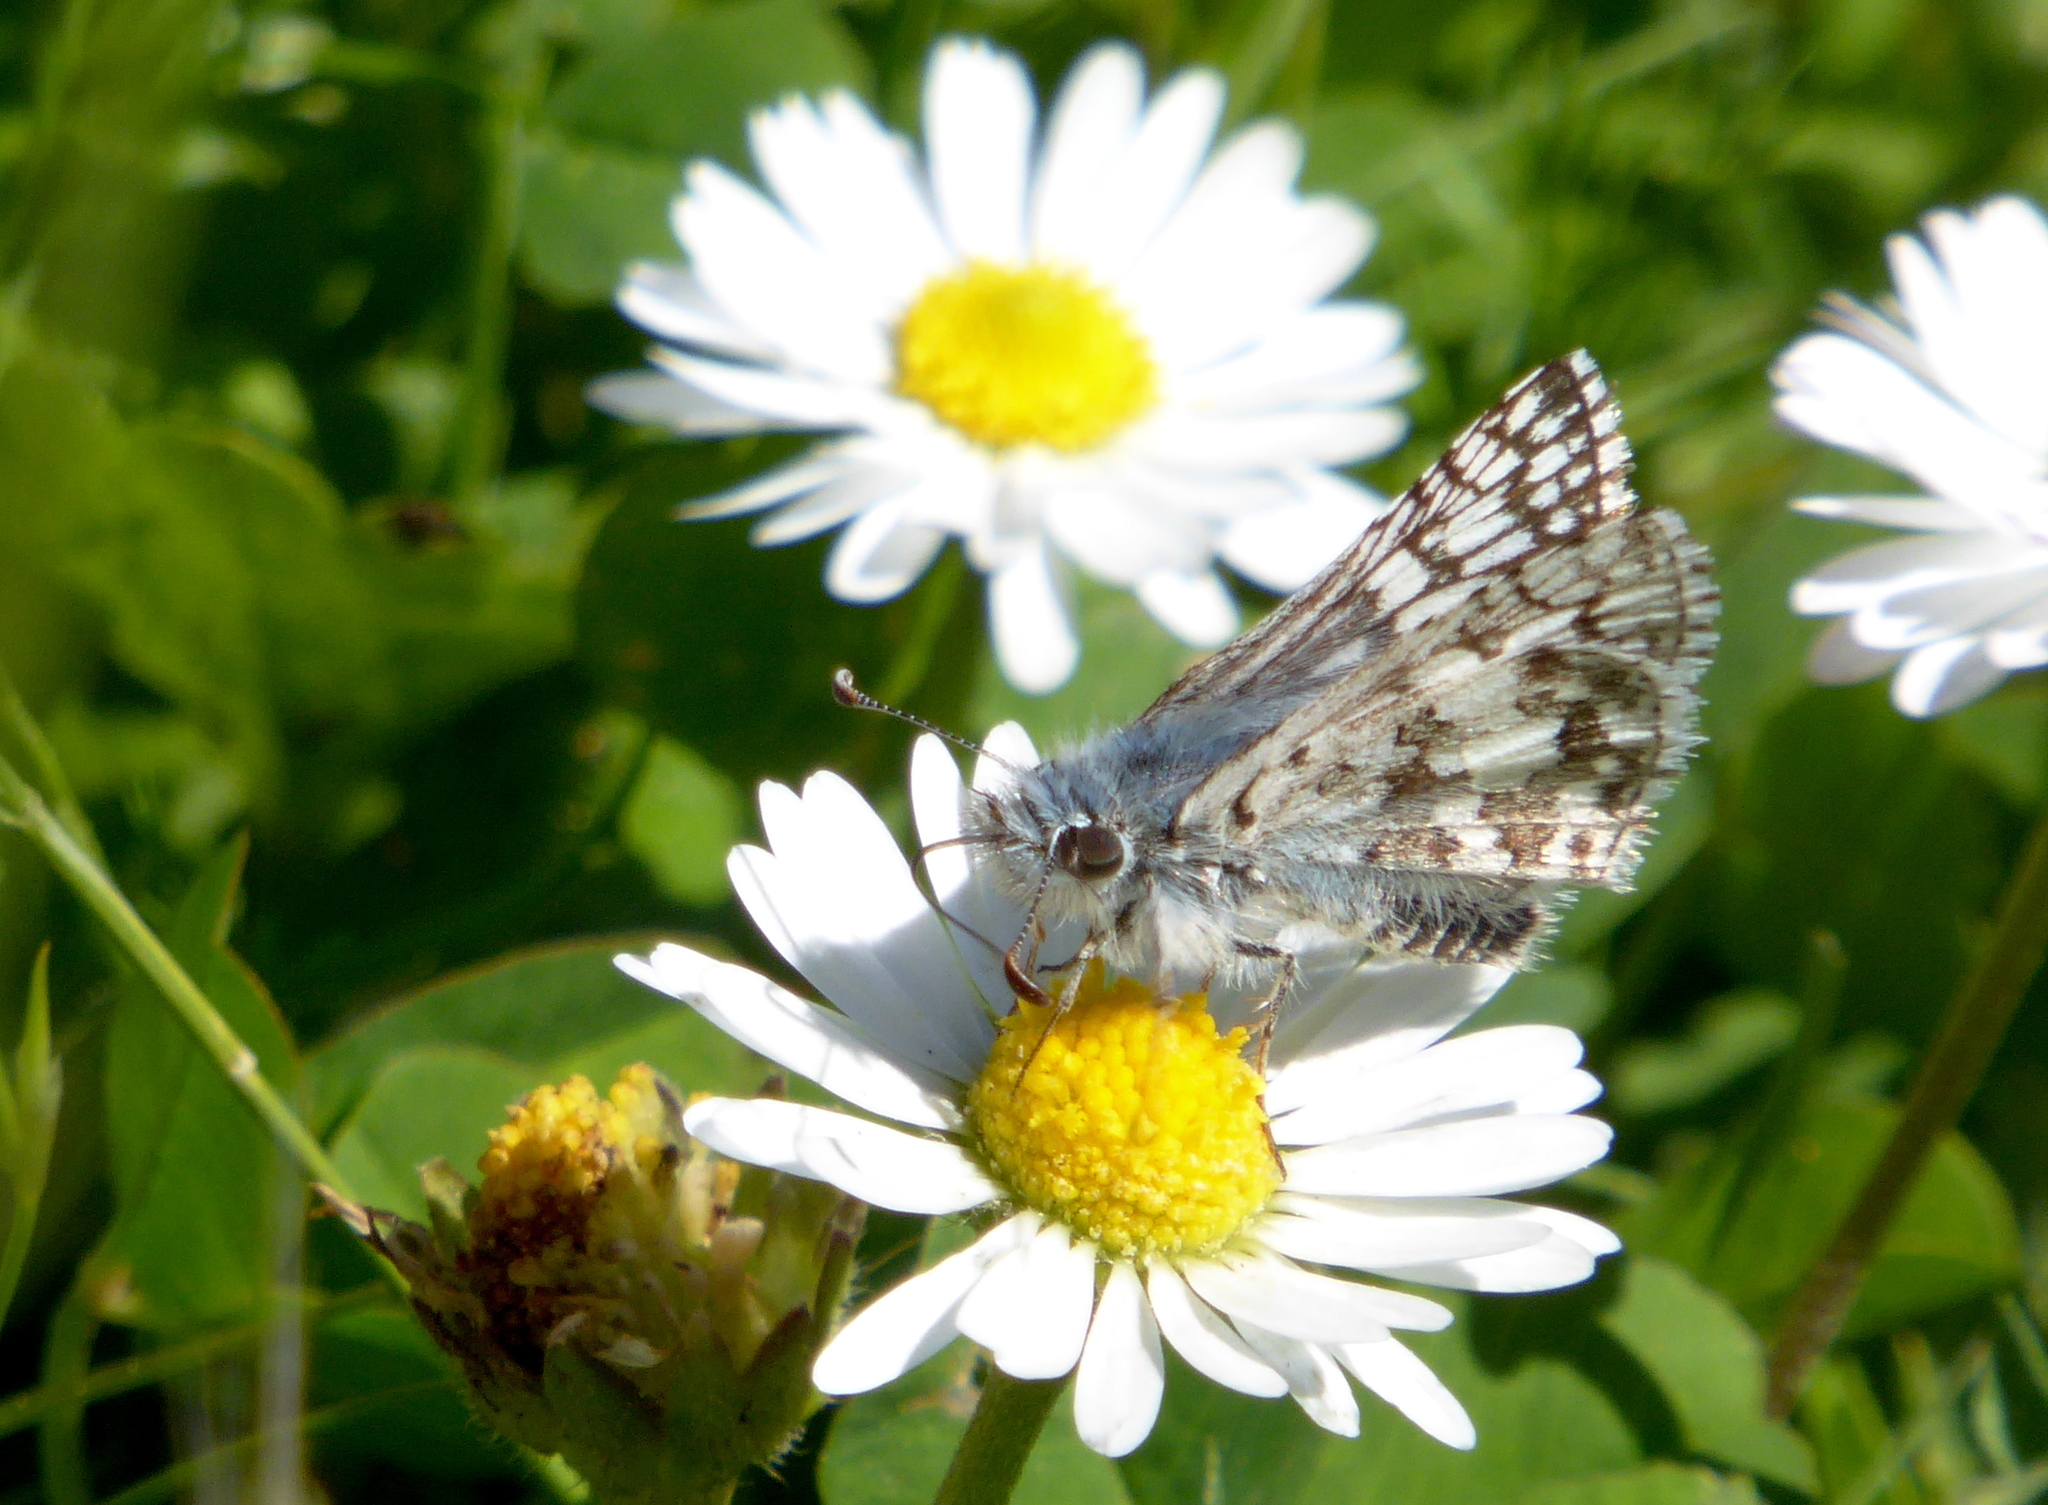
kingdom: Animalia
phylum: Arthropoda
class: Insecta
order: Lepidoptera
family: Hesperiidae
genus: Burnsius
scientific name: Burnsius communis
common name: Common checkered-skipper
